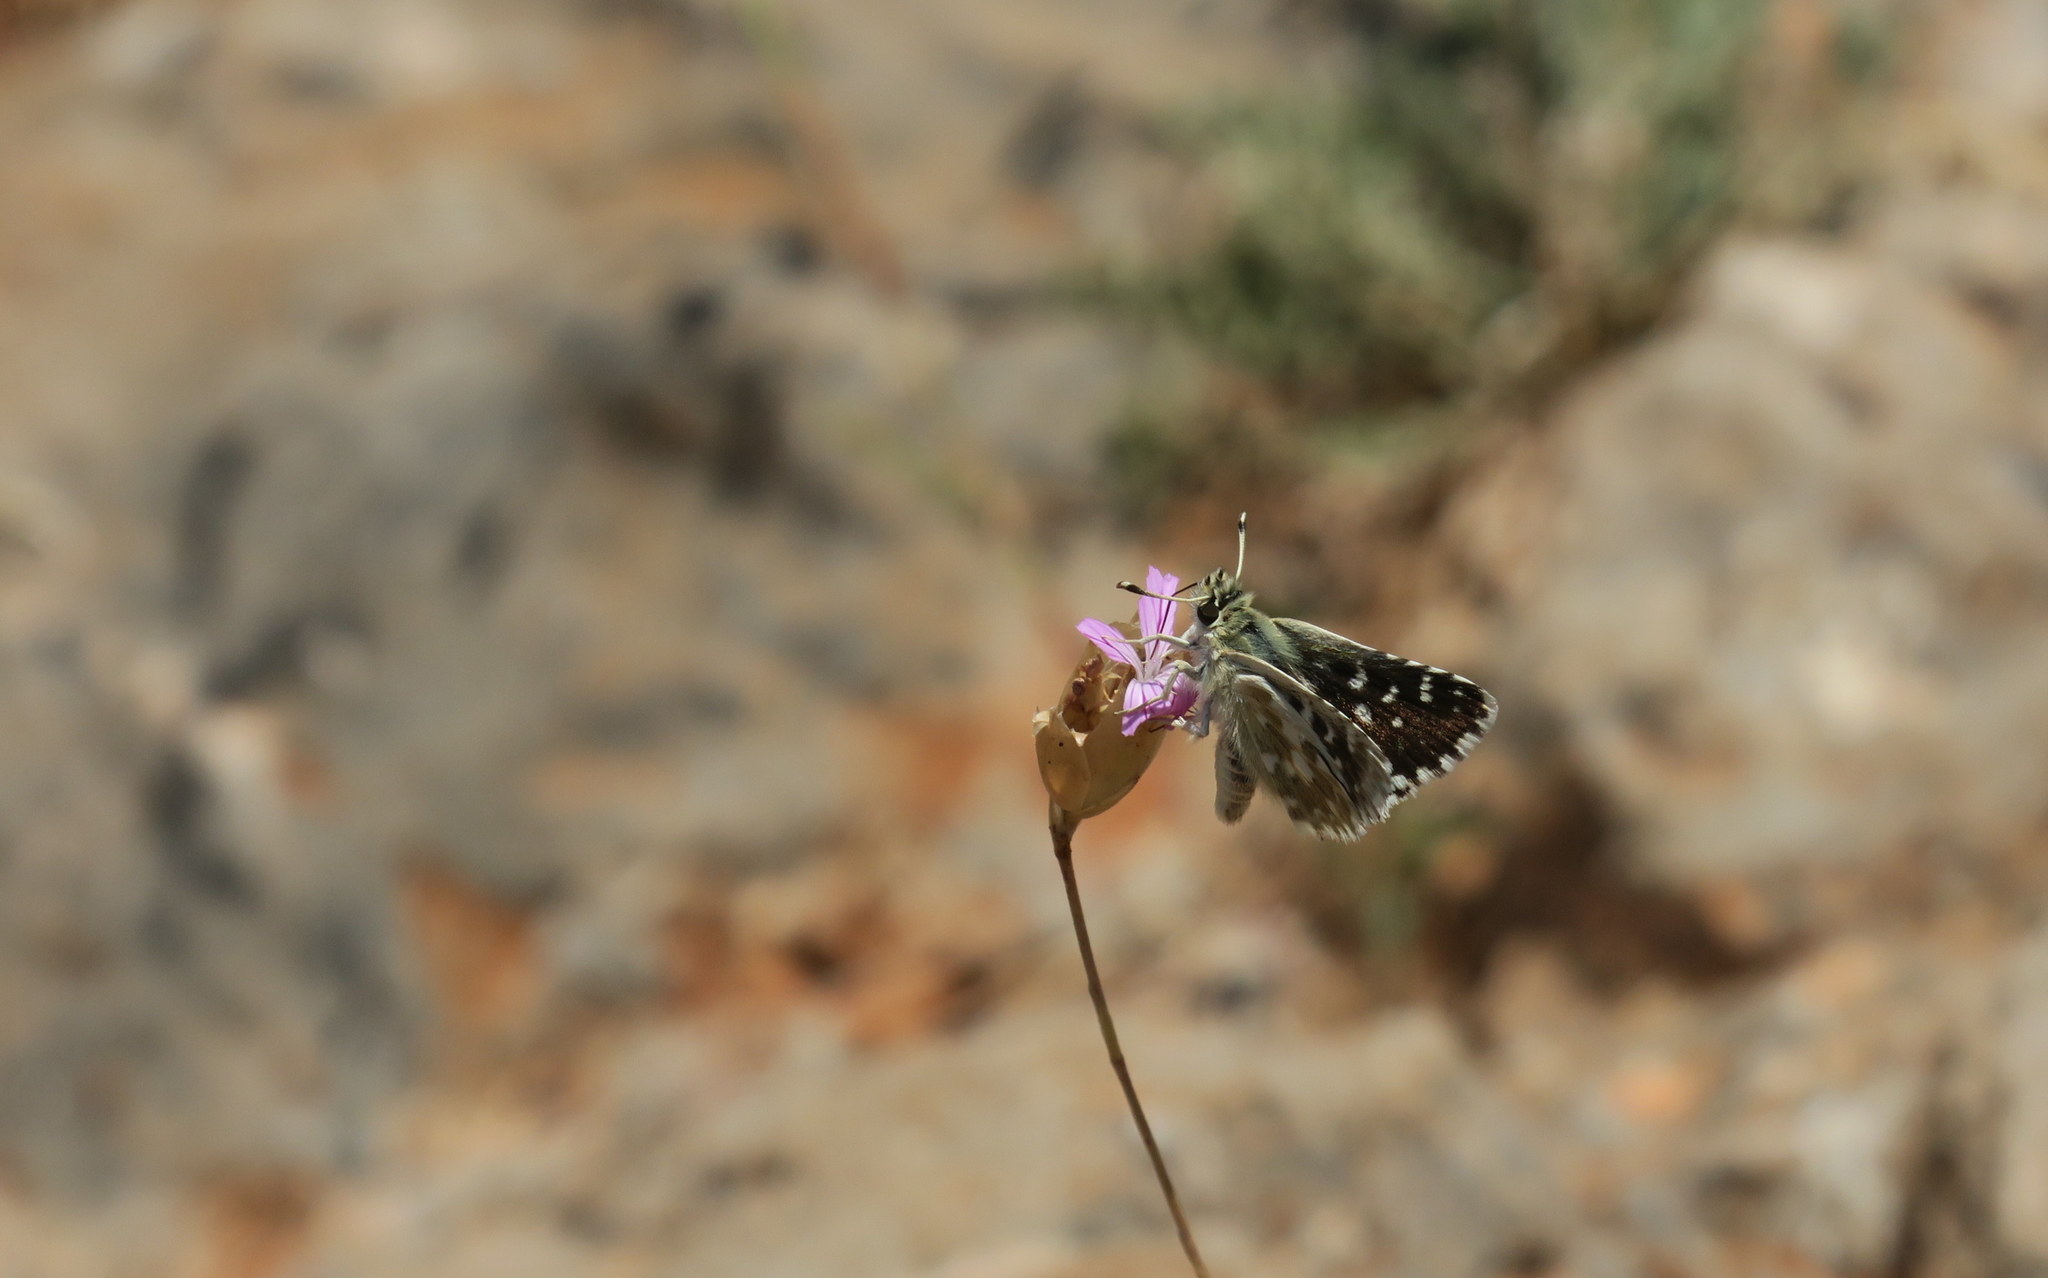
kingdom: Animalia
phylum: Arthropoda
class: Insecta
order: Lepidoptera
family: Hesperiidae
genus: Spialia
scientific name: Spialia phlomidis
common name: Persian skipper
